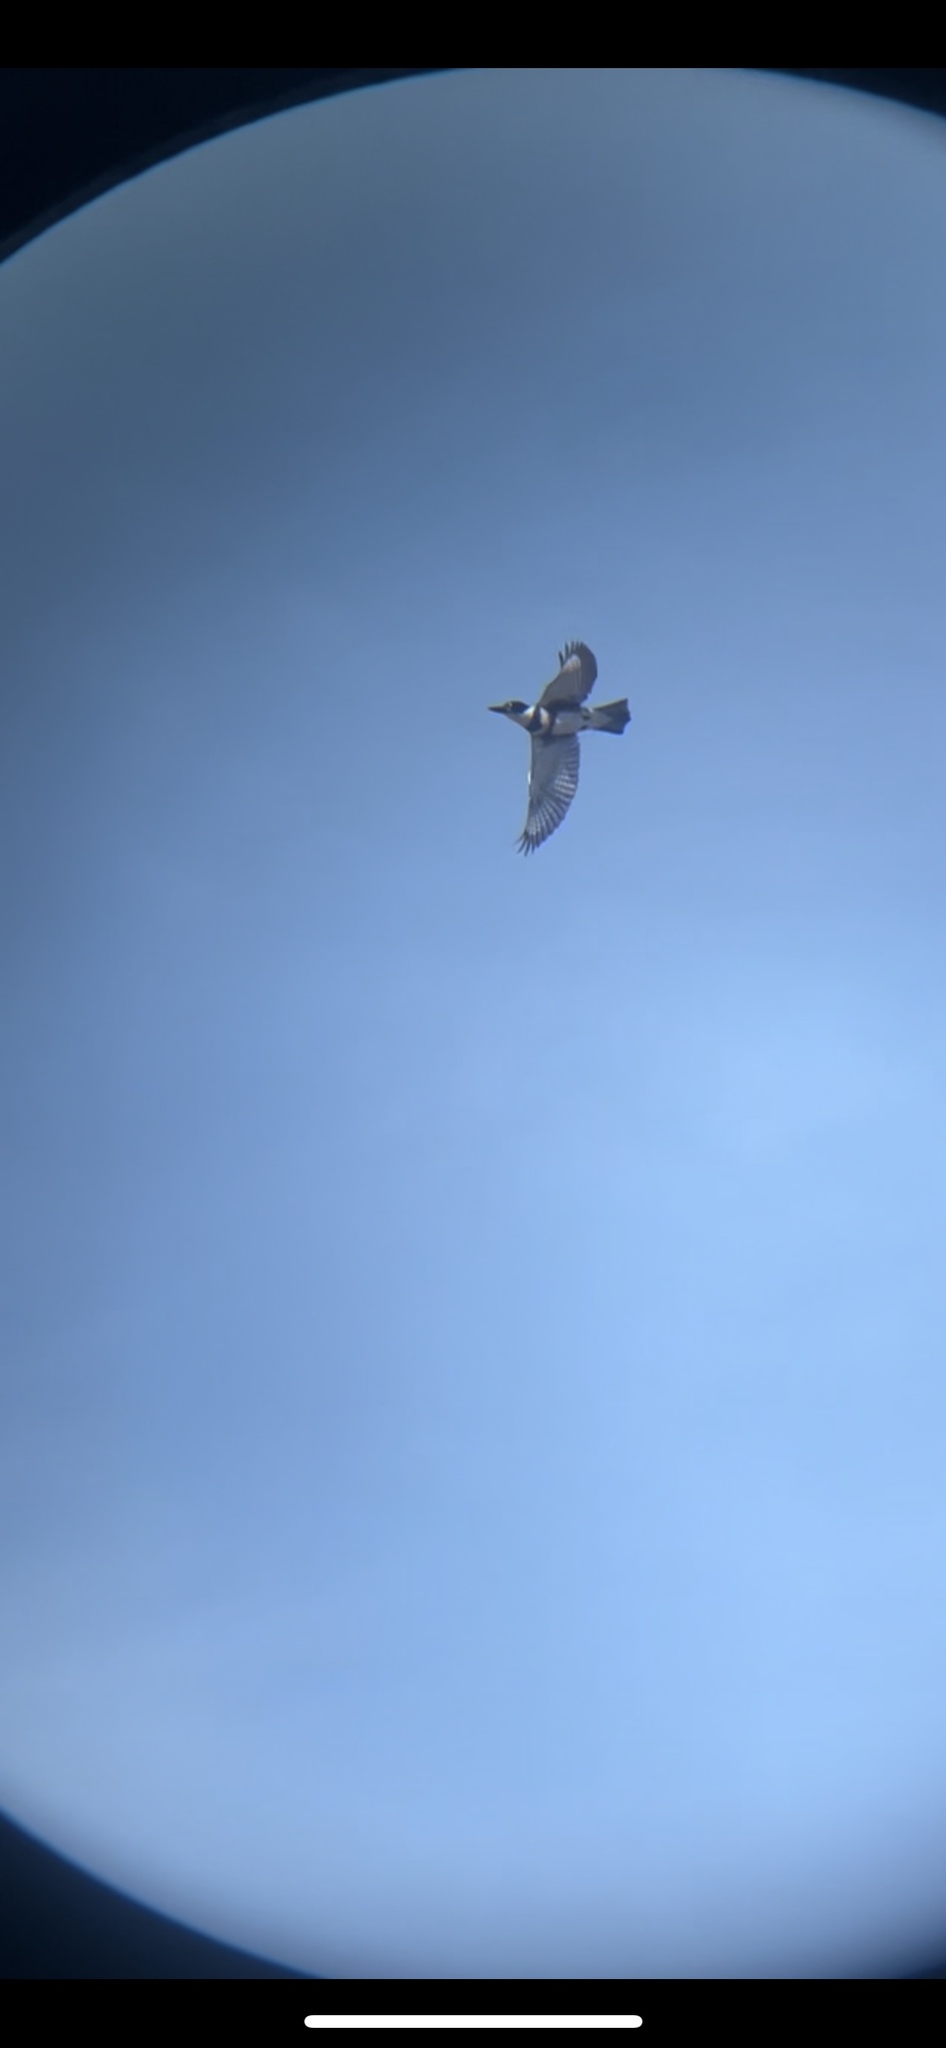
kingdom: Animalia
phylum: Chordata
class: Aves
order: Coraciiformes
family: Alcedinidae
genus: Megaceryle
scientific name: Megaceryle alcyon
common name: Belted kingfisher
